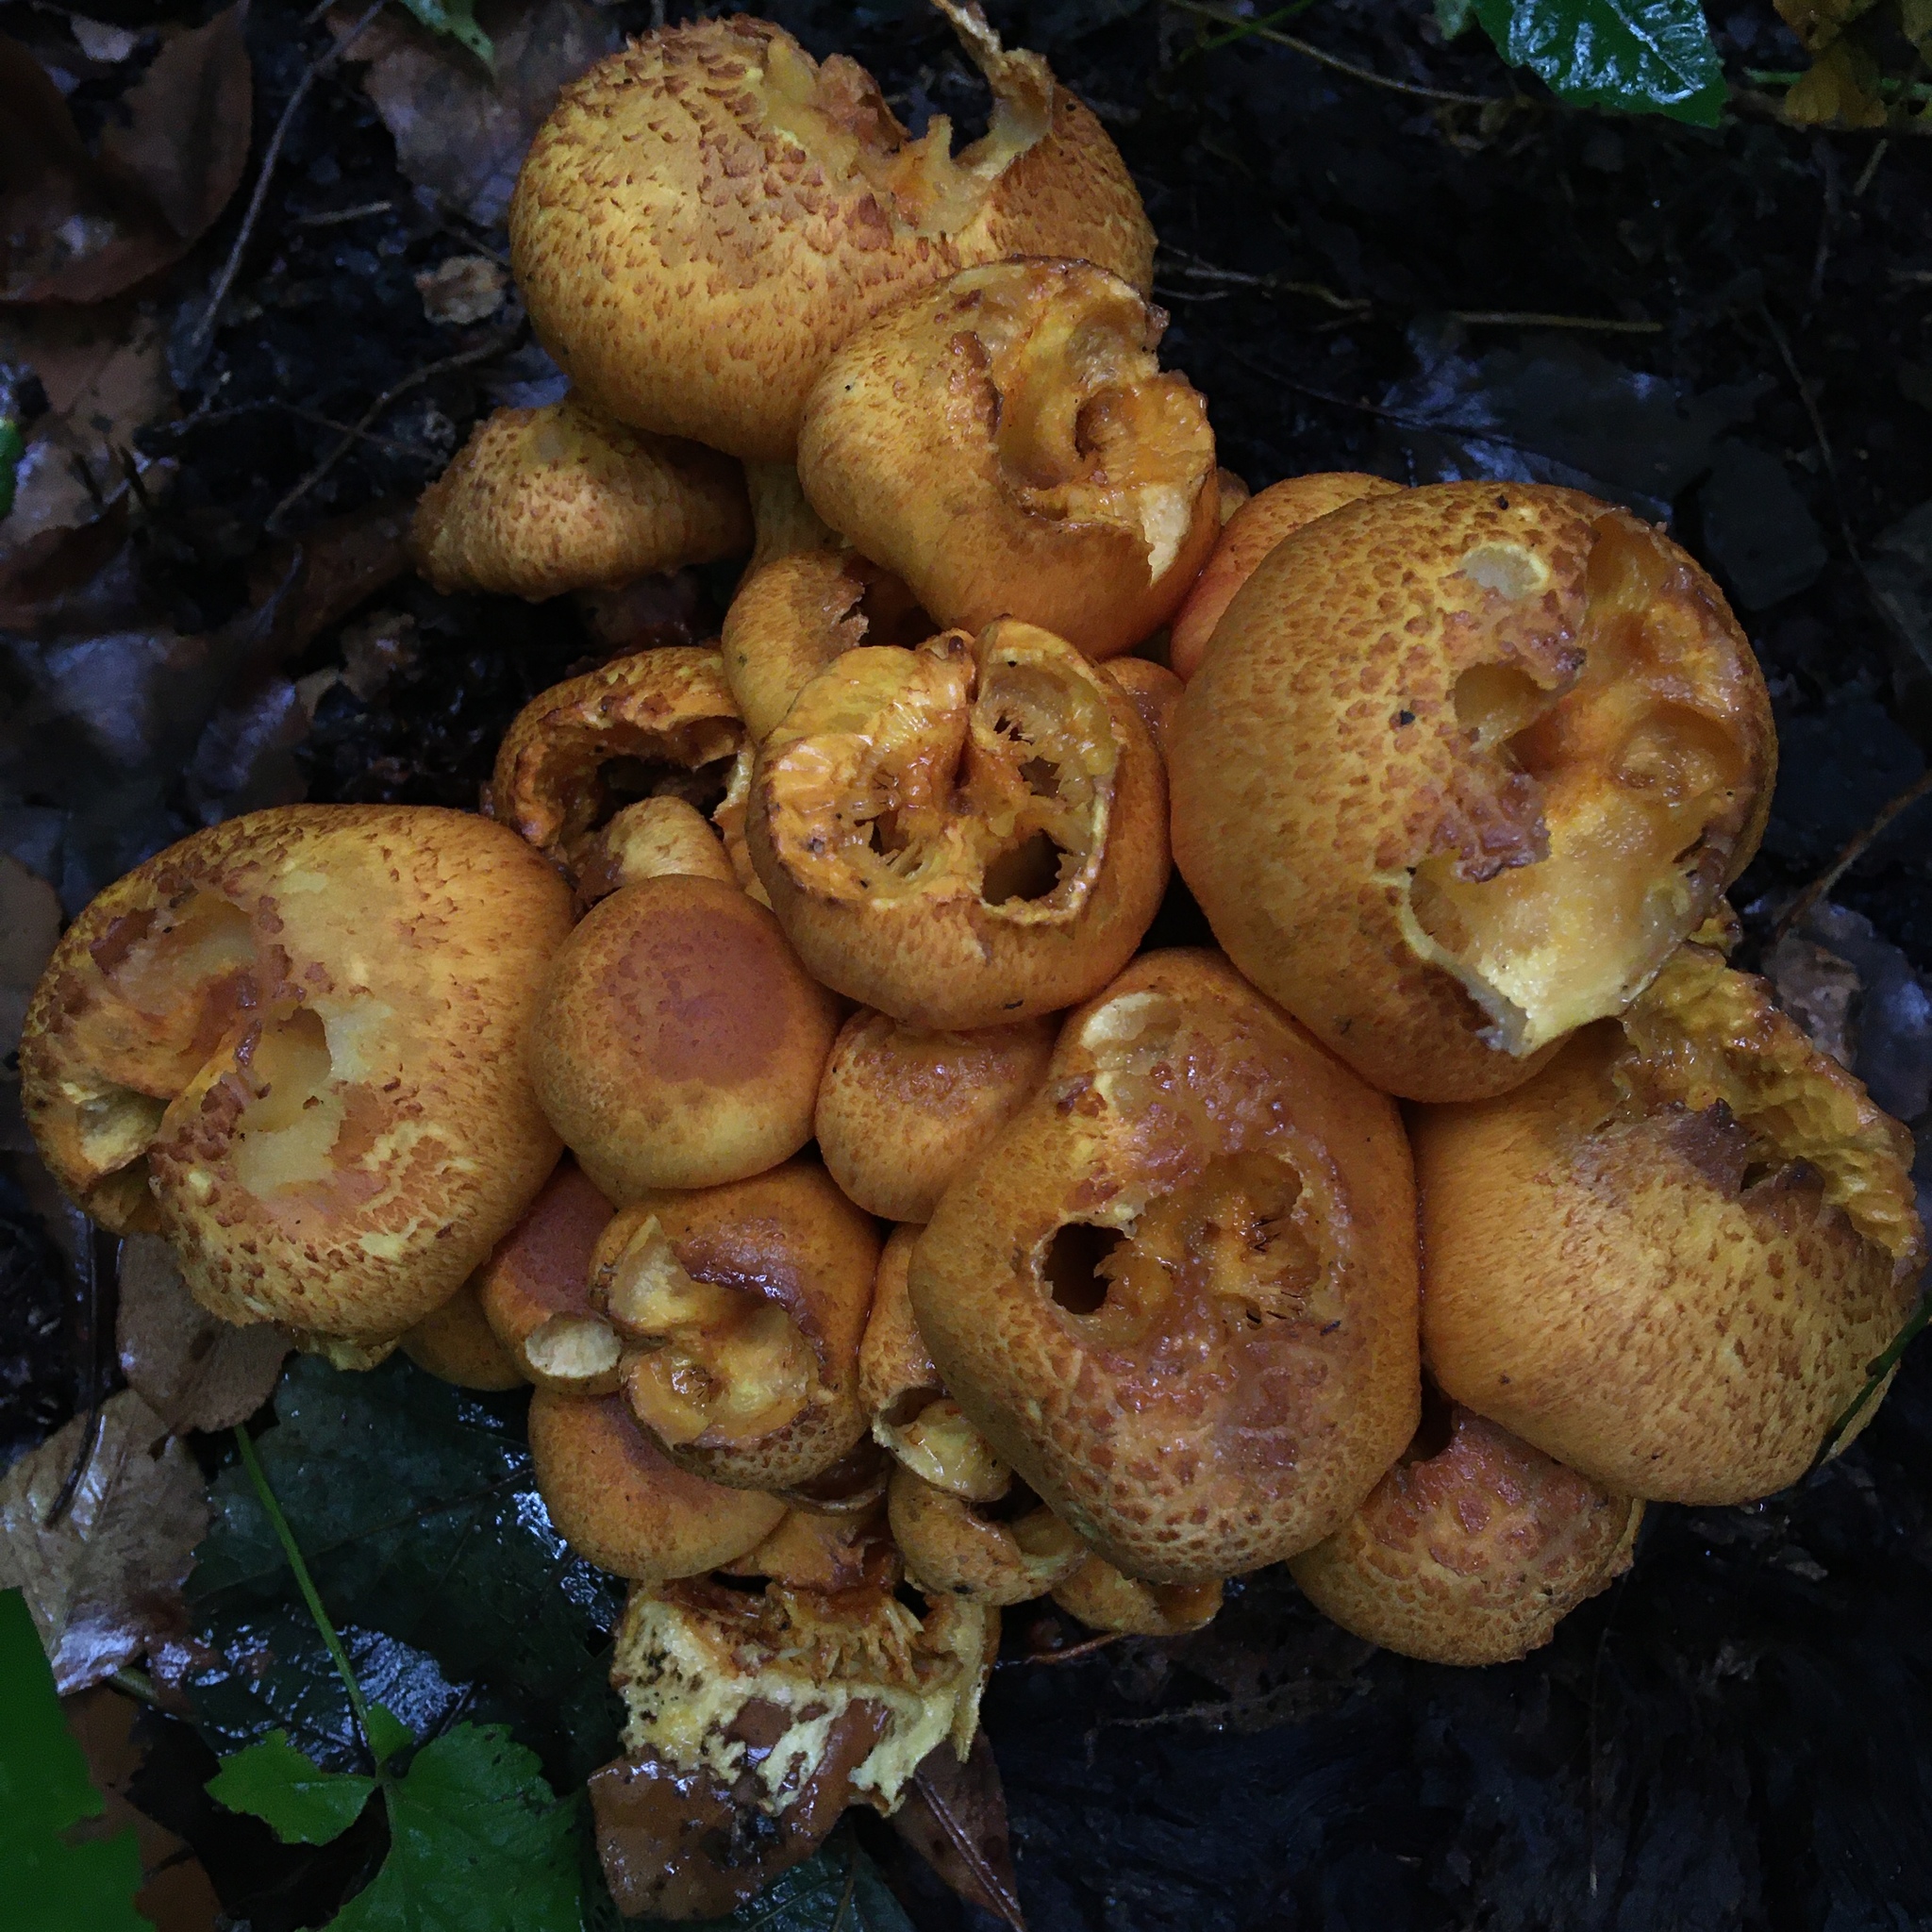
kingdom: Fungi
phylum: Basidiomycota
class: Agaricomycetes
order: Agaricales
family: Hymenogastraceae
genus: Gymnopilus
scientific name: Gymnopilus subspectabilis
